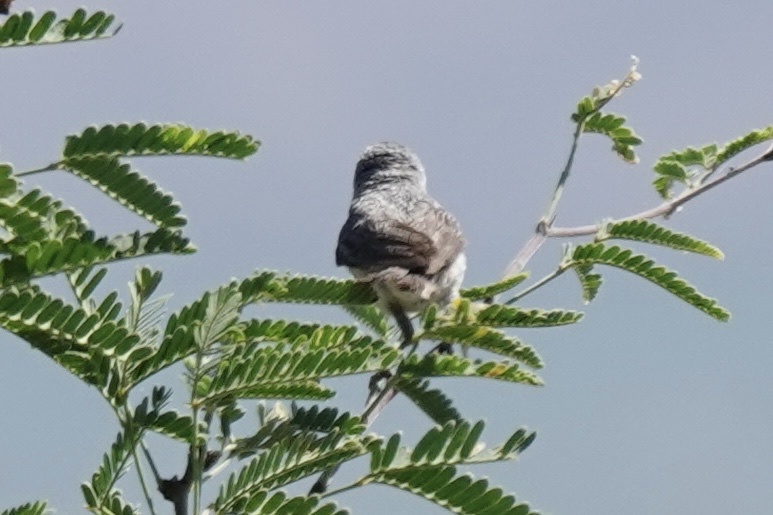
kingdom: Animalia
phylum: Chordata
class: Aves
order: Passeriformes
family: Parulidae
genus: Leiothlypis
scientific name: Leiothlypis luciae
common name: Lucy's warbler
